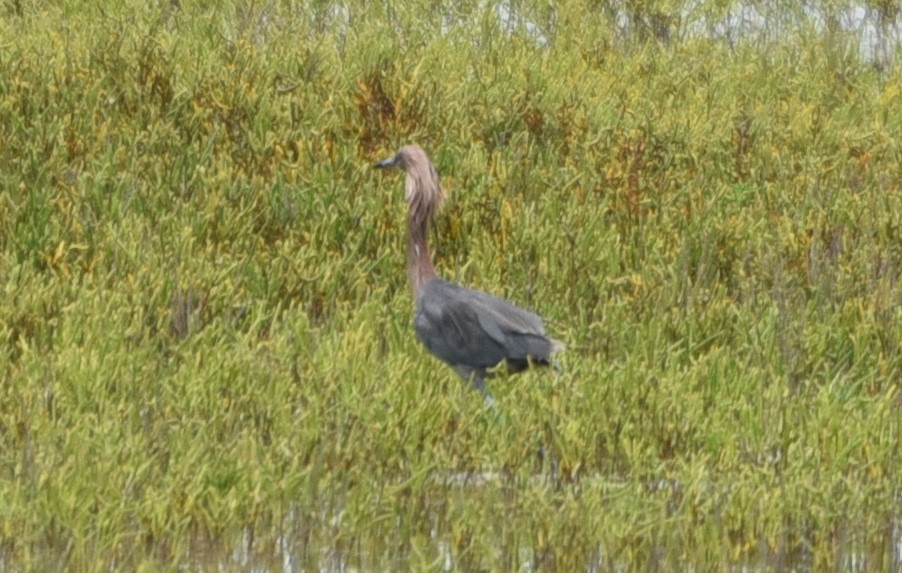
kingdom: Animalia
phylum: Chordata
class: Aves
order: Pelecaniformes
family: Ardeidae
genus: Egretta
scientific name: Egretta rufescens
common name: Reddish egret
